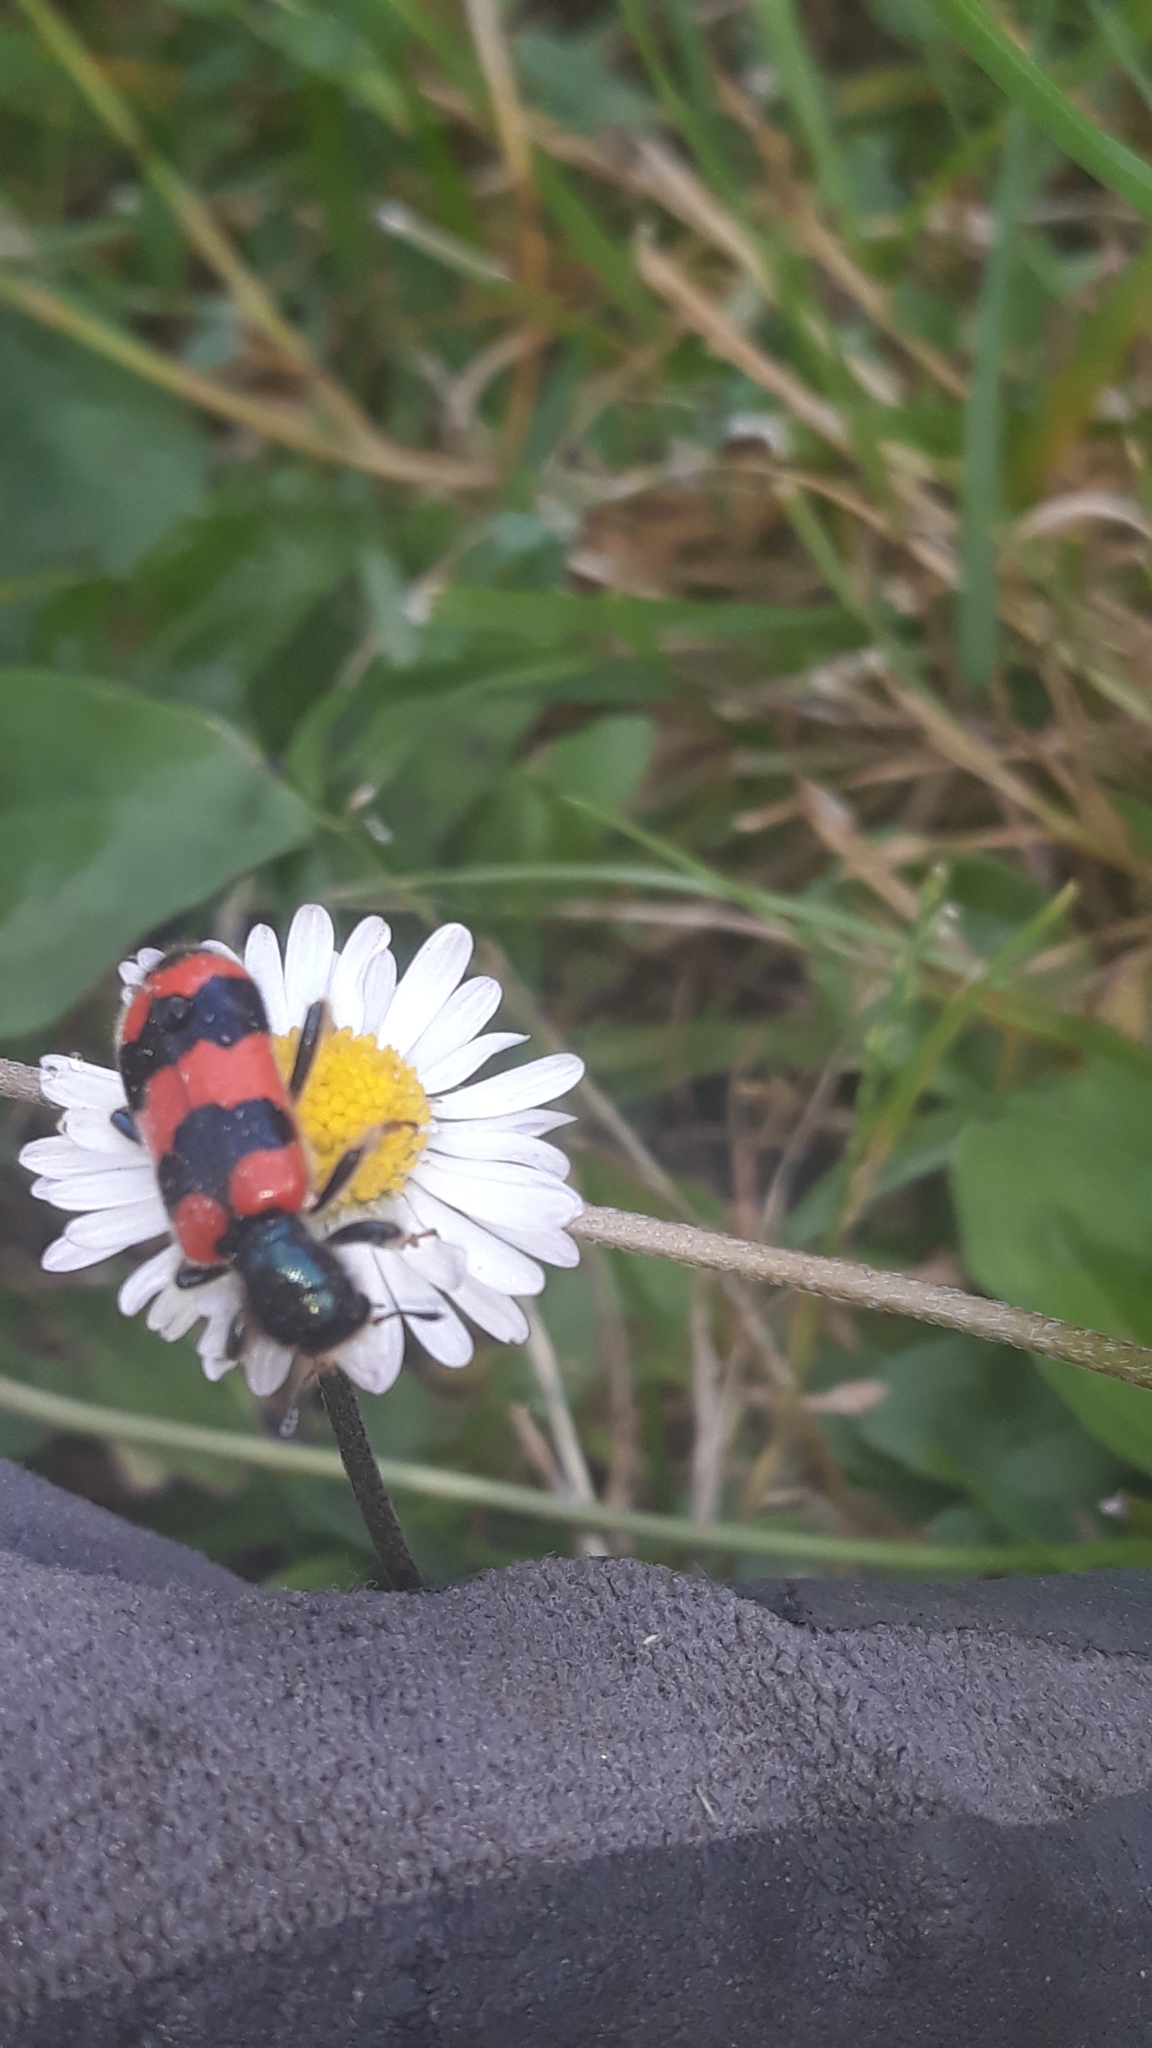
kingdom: Animalia
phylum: Arthropoda
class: Insecta
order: Coleoptera
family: Cleridae
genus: Trichodes
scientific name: Trichodes apiarius
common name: Bee-eating beetle
